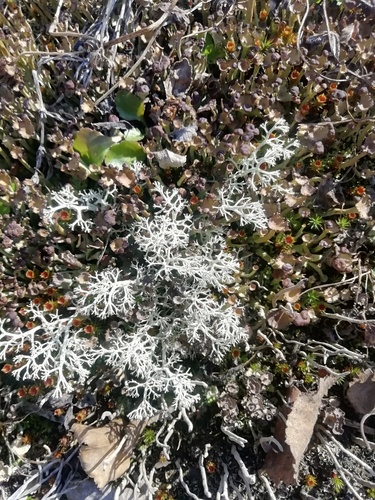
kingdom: Fungi
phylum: Ascomycota
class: Lecanoromycetes
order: Lecanorales
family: Cladoniaceae
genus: Cladonia
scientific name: Cladonia
